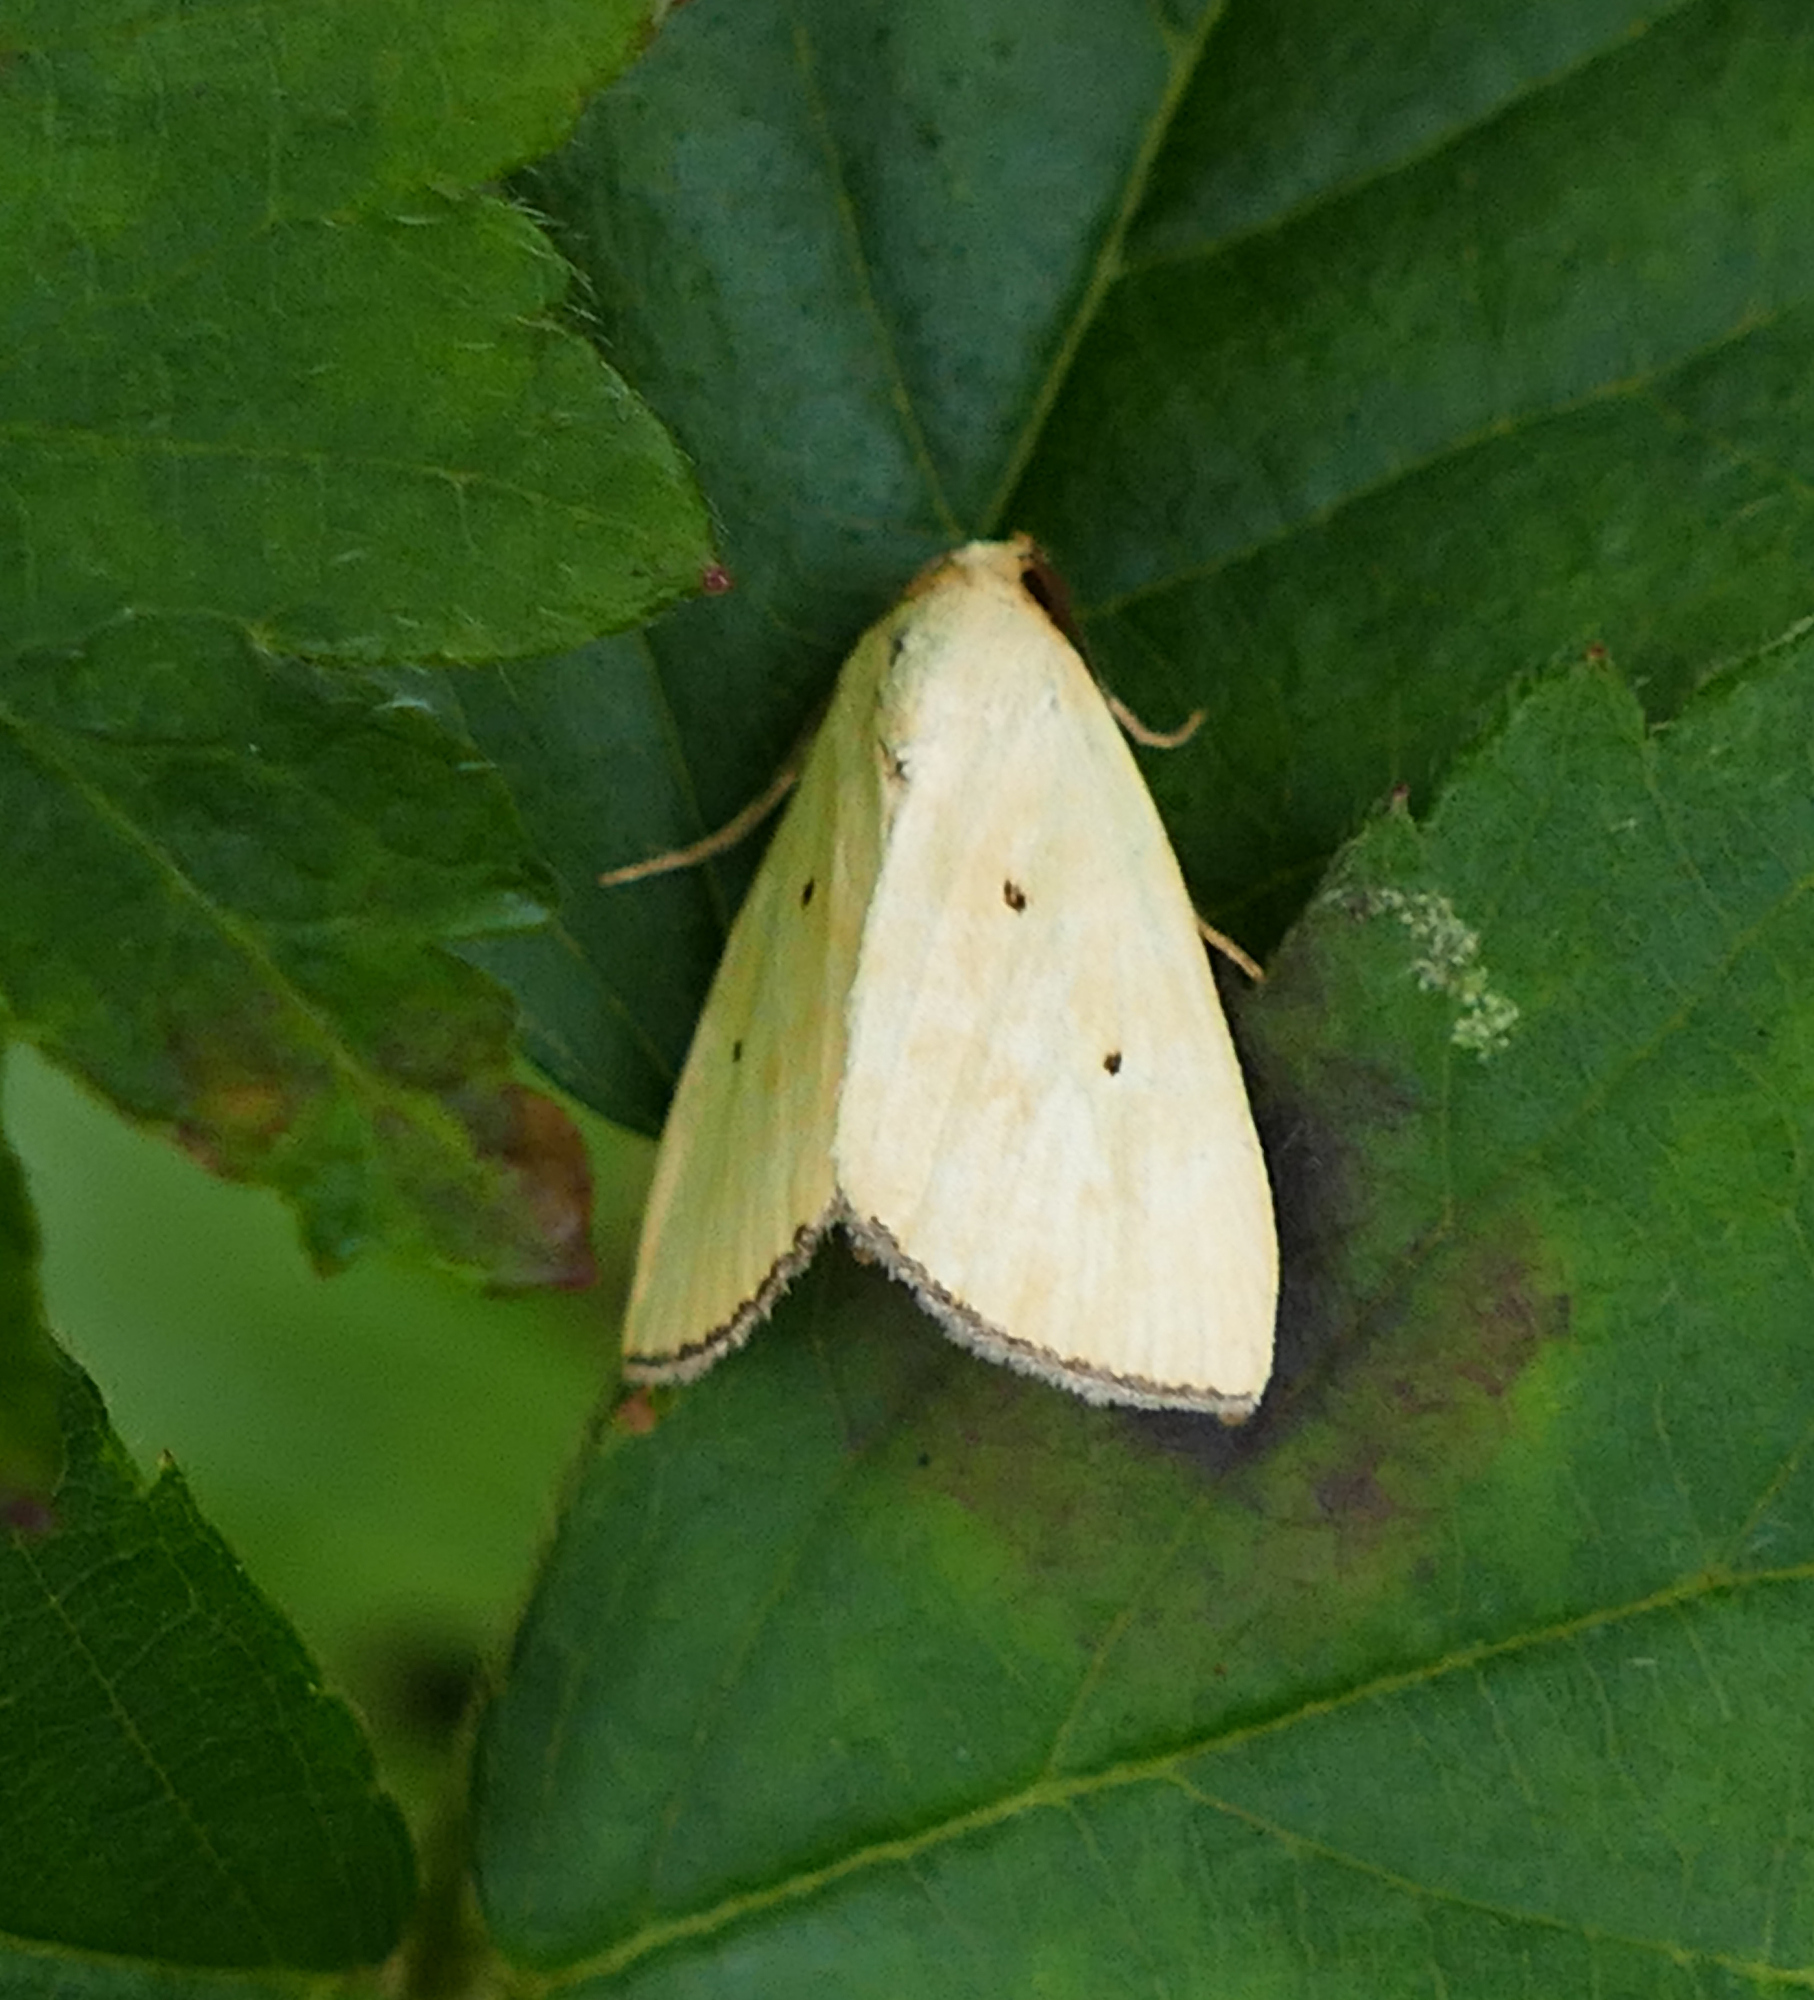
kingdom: Animalia
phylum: Arthropoda
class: Insecta
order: Lepidoptera
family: Noctuidae
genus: Marimatha
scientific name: Marimatha nigrofimbria
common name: Black-bordered lemon moth
